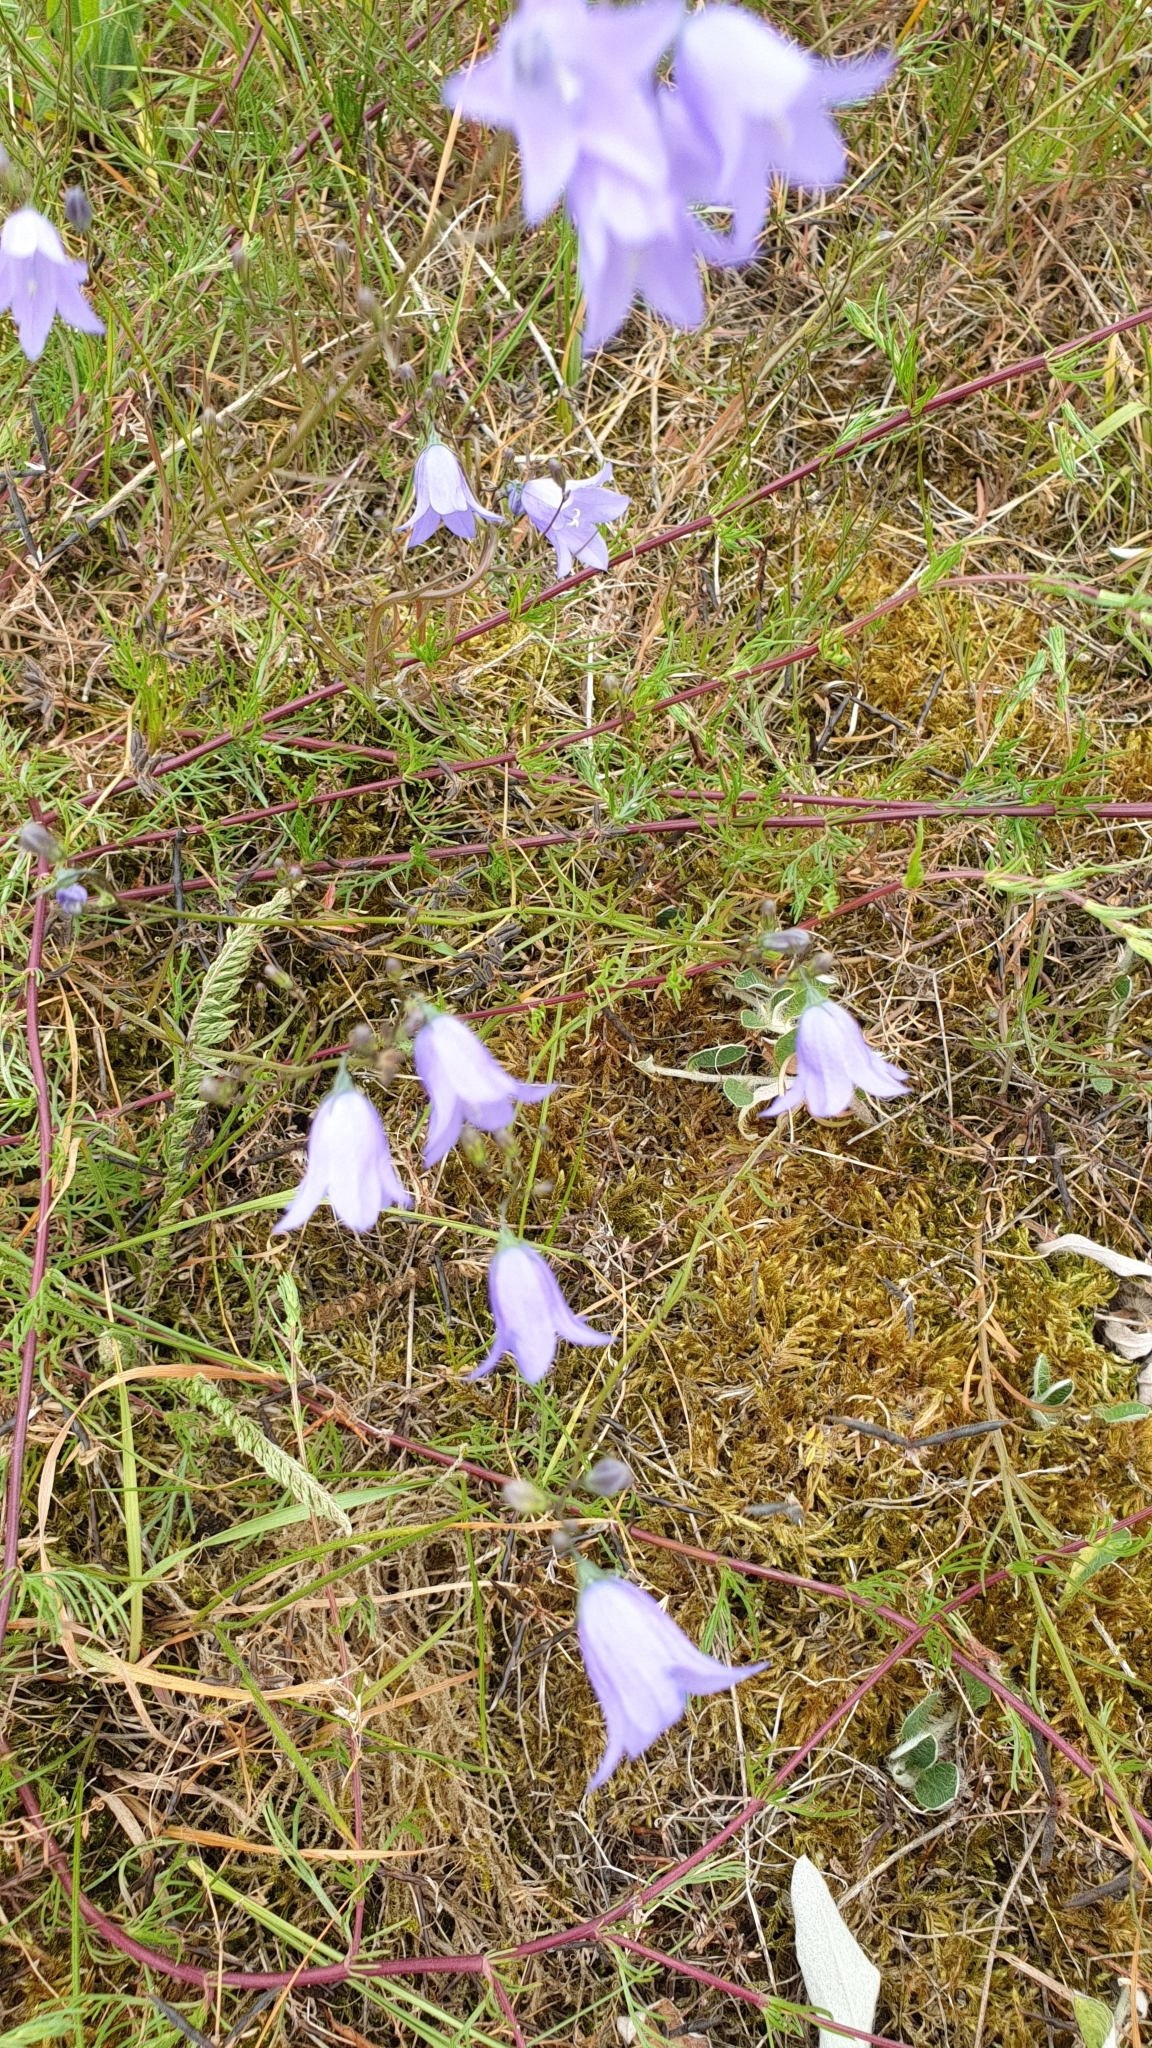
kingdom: Plantae
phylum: Tracheophyta
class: Magnoliopsida
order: Asterales
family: Campanulaceae
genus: Campanula
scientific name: Campanula rotundifolia
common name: Harebell
